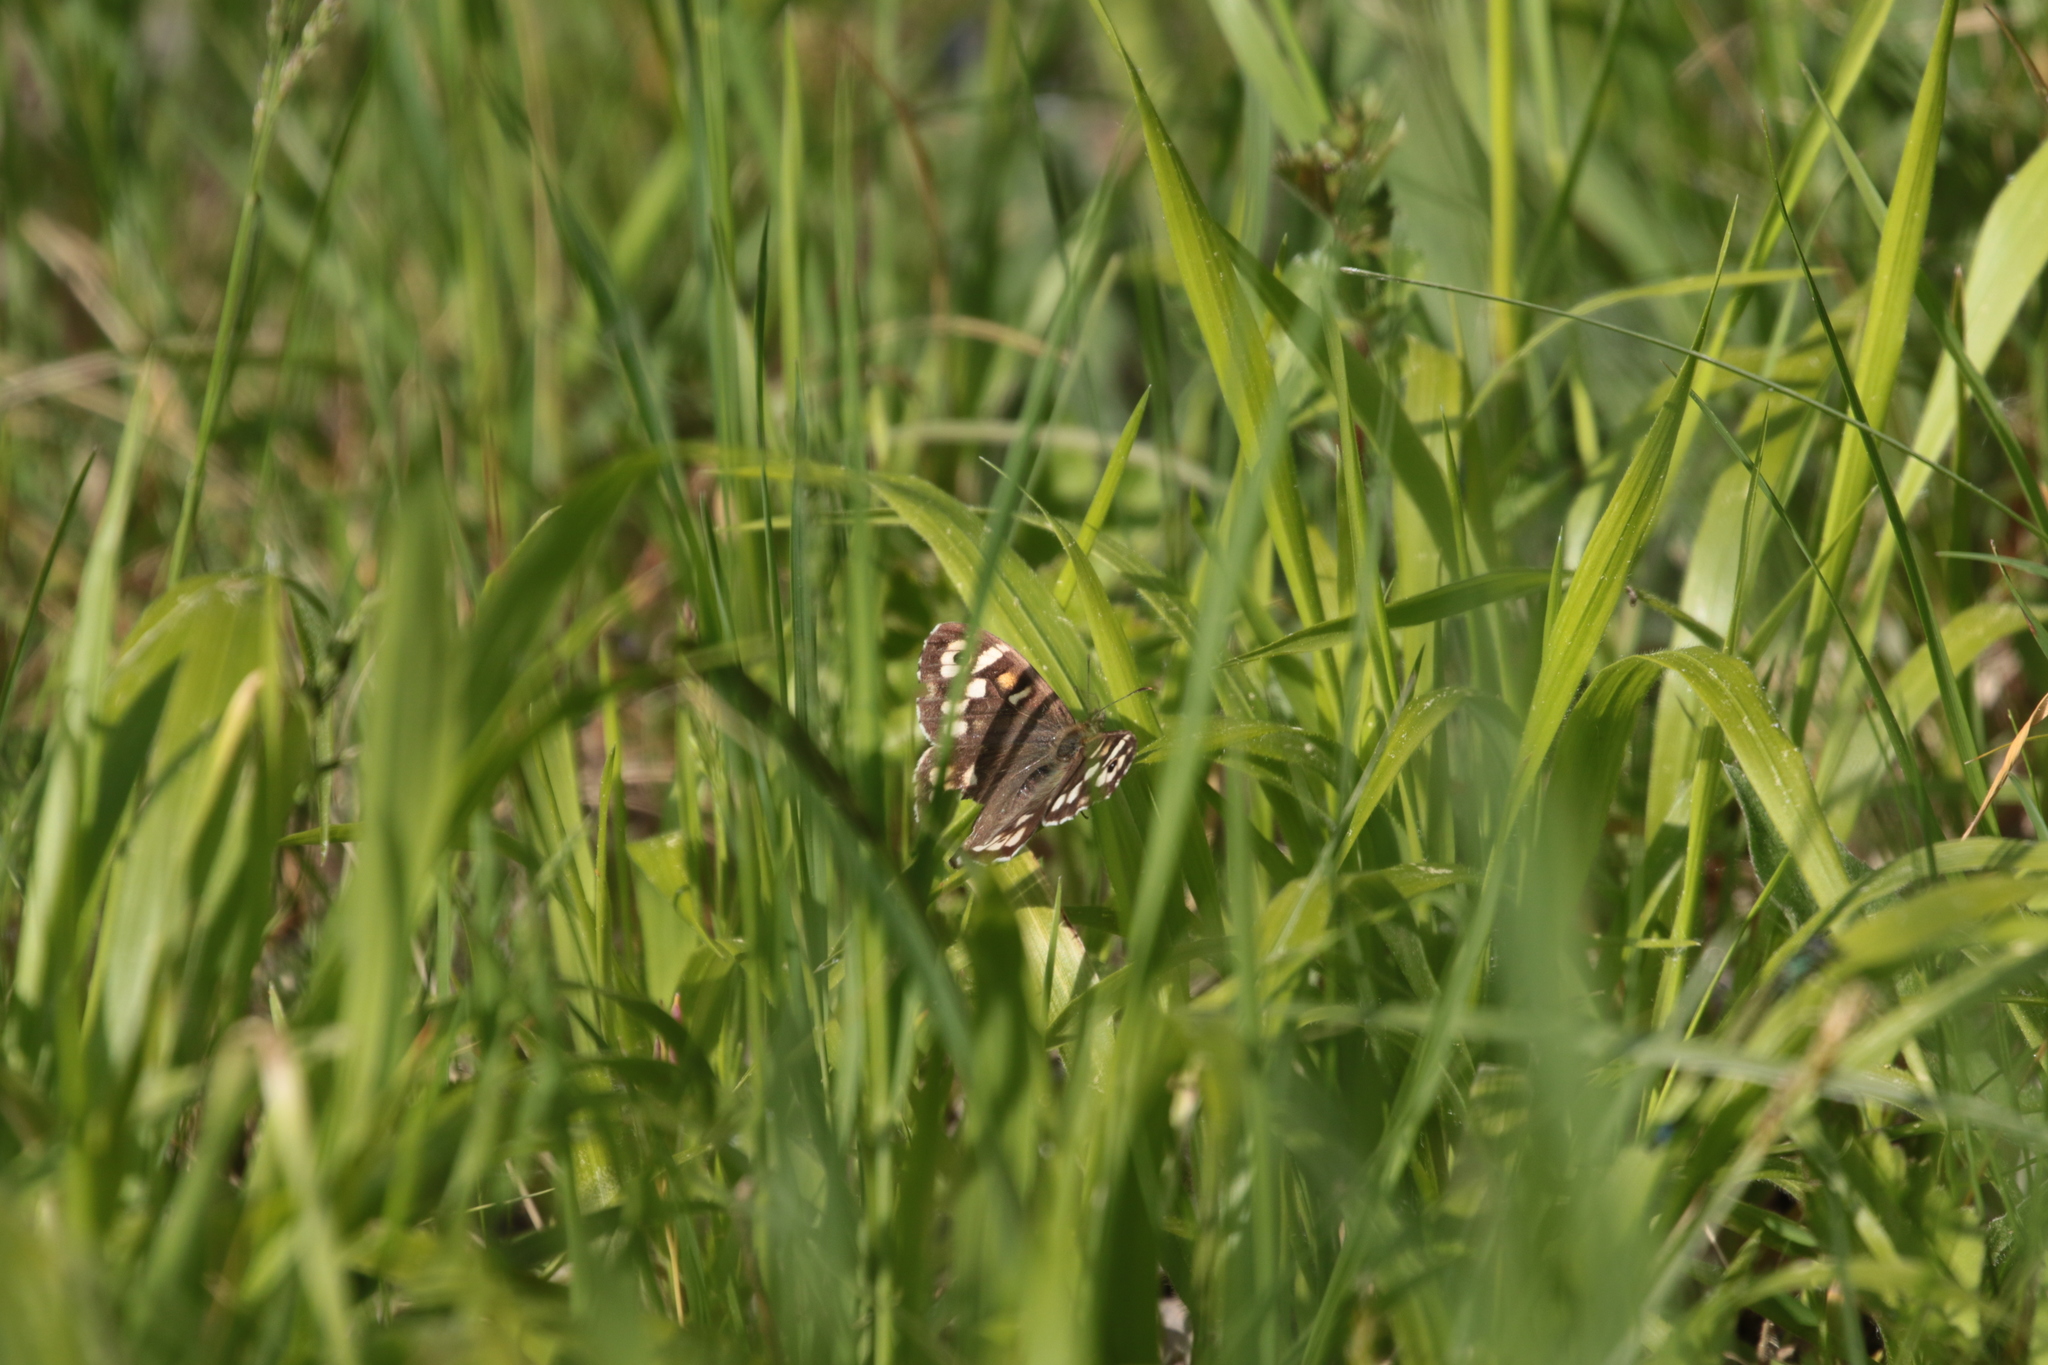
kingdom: Animalia
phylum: Arthropoda
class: Insecta
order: Lepidoptera
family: Nymphalidae
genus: Pararge
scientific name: Pararge aegeria
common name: Speckled wood
